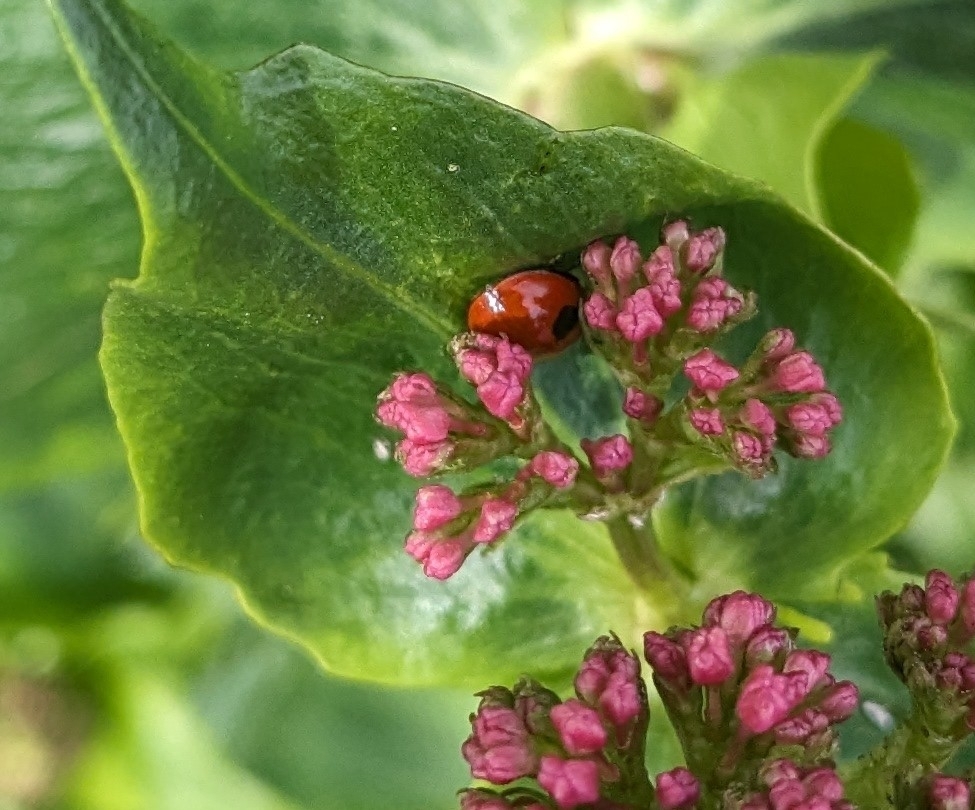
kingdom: Animalia
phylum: Arthropoda
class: Insecta
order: Coleoptera
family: Coccinellidae
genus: Adalia
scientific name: Adalia bipunctata
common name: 2-spot ladybird
